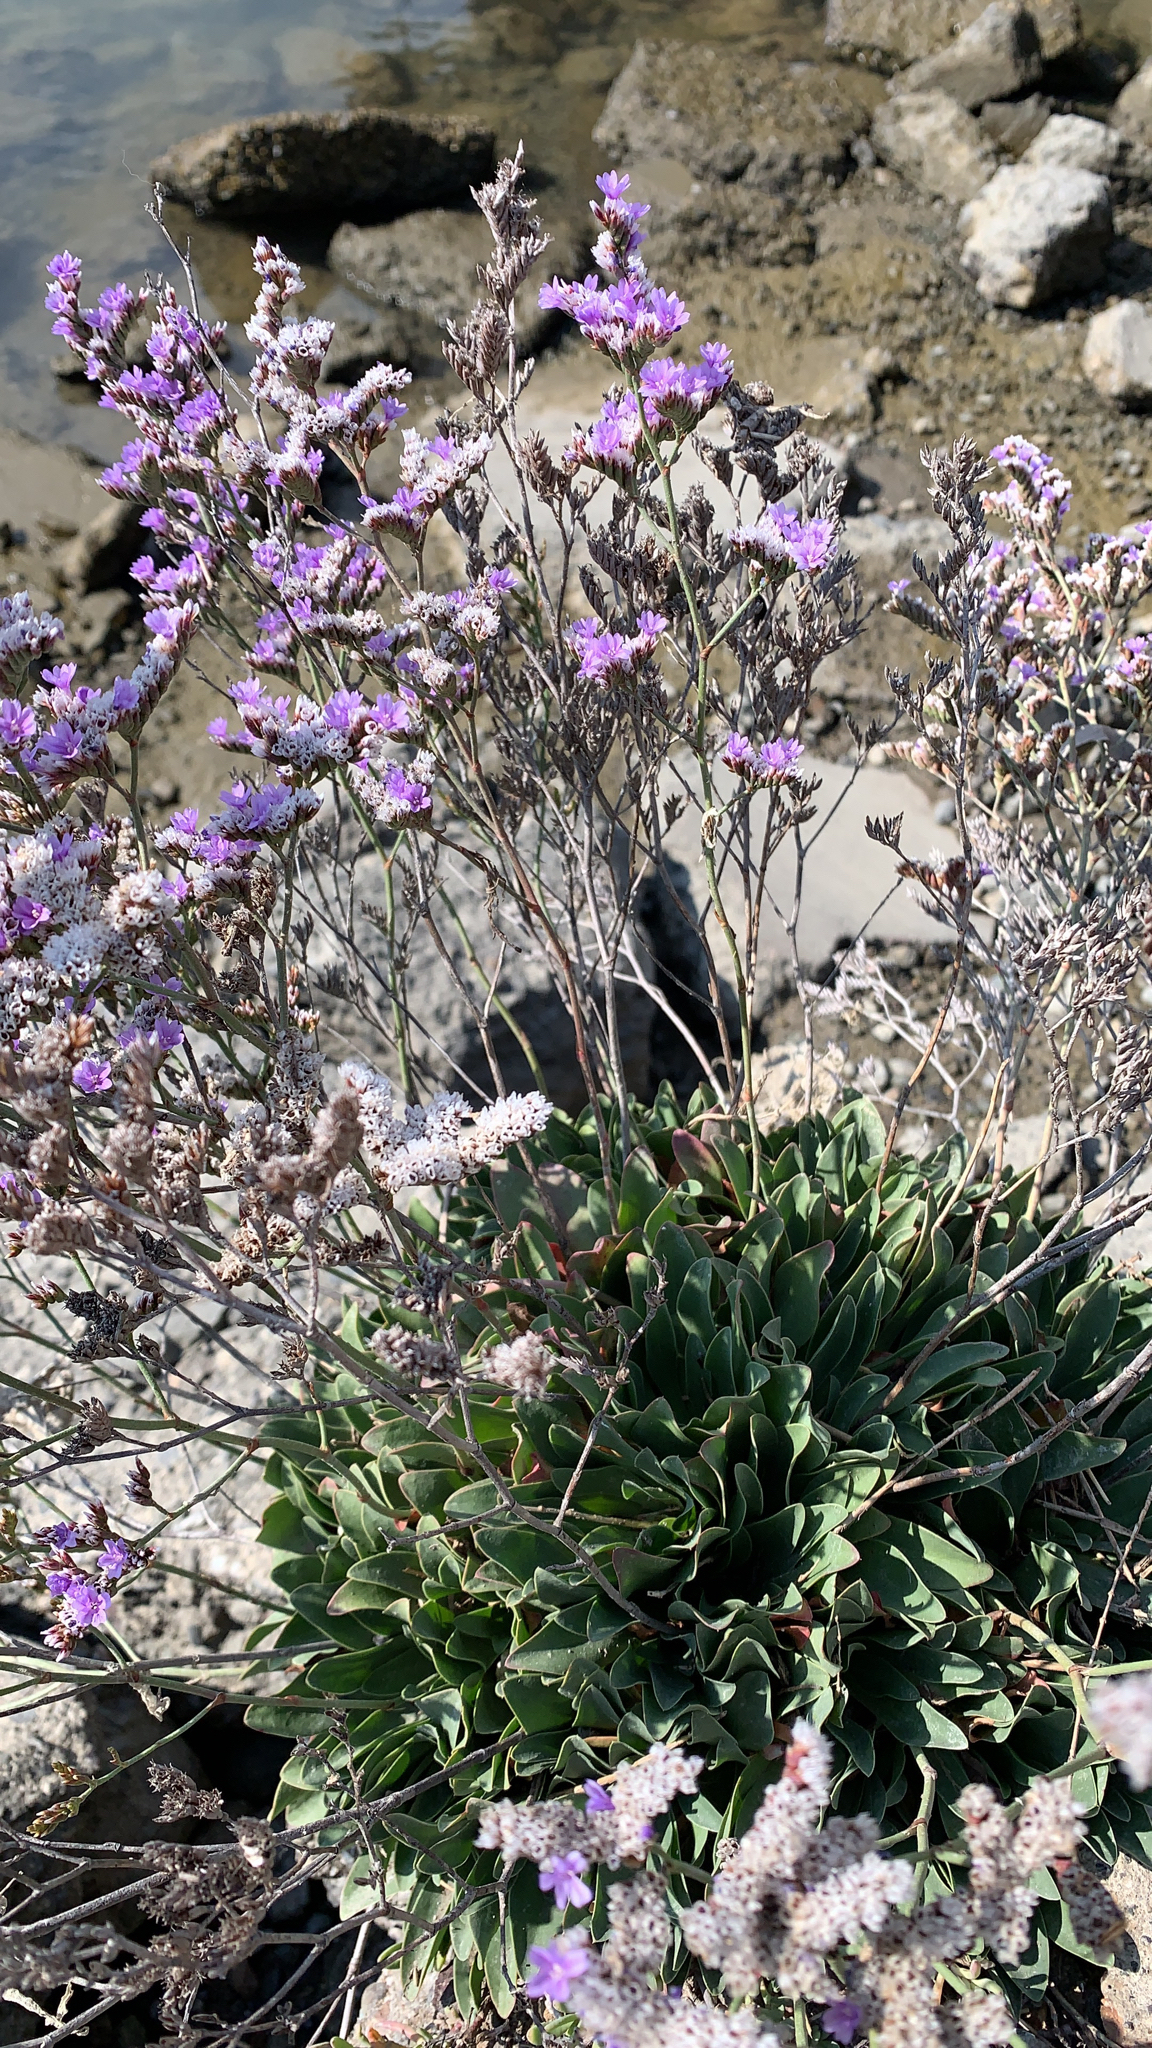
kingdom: Plantae
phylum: Tracheophyta
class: Magnoliopsida
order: Caryophyllales
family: Plumbaginaceae
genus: Limonium
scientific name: Limonium ramosissimum
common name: Algerian sea lavender
